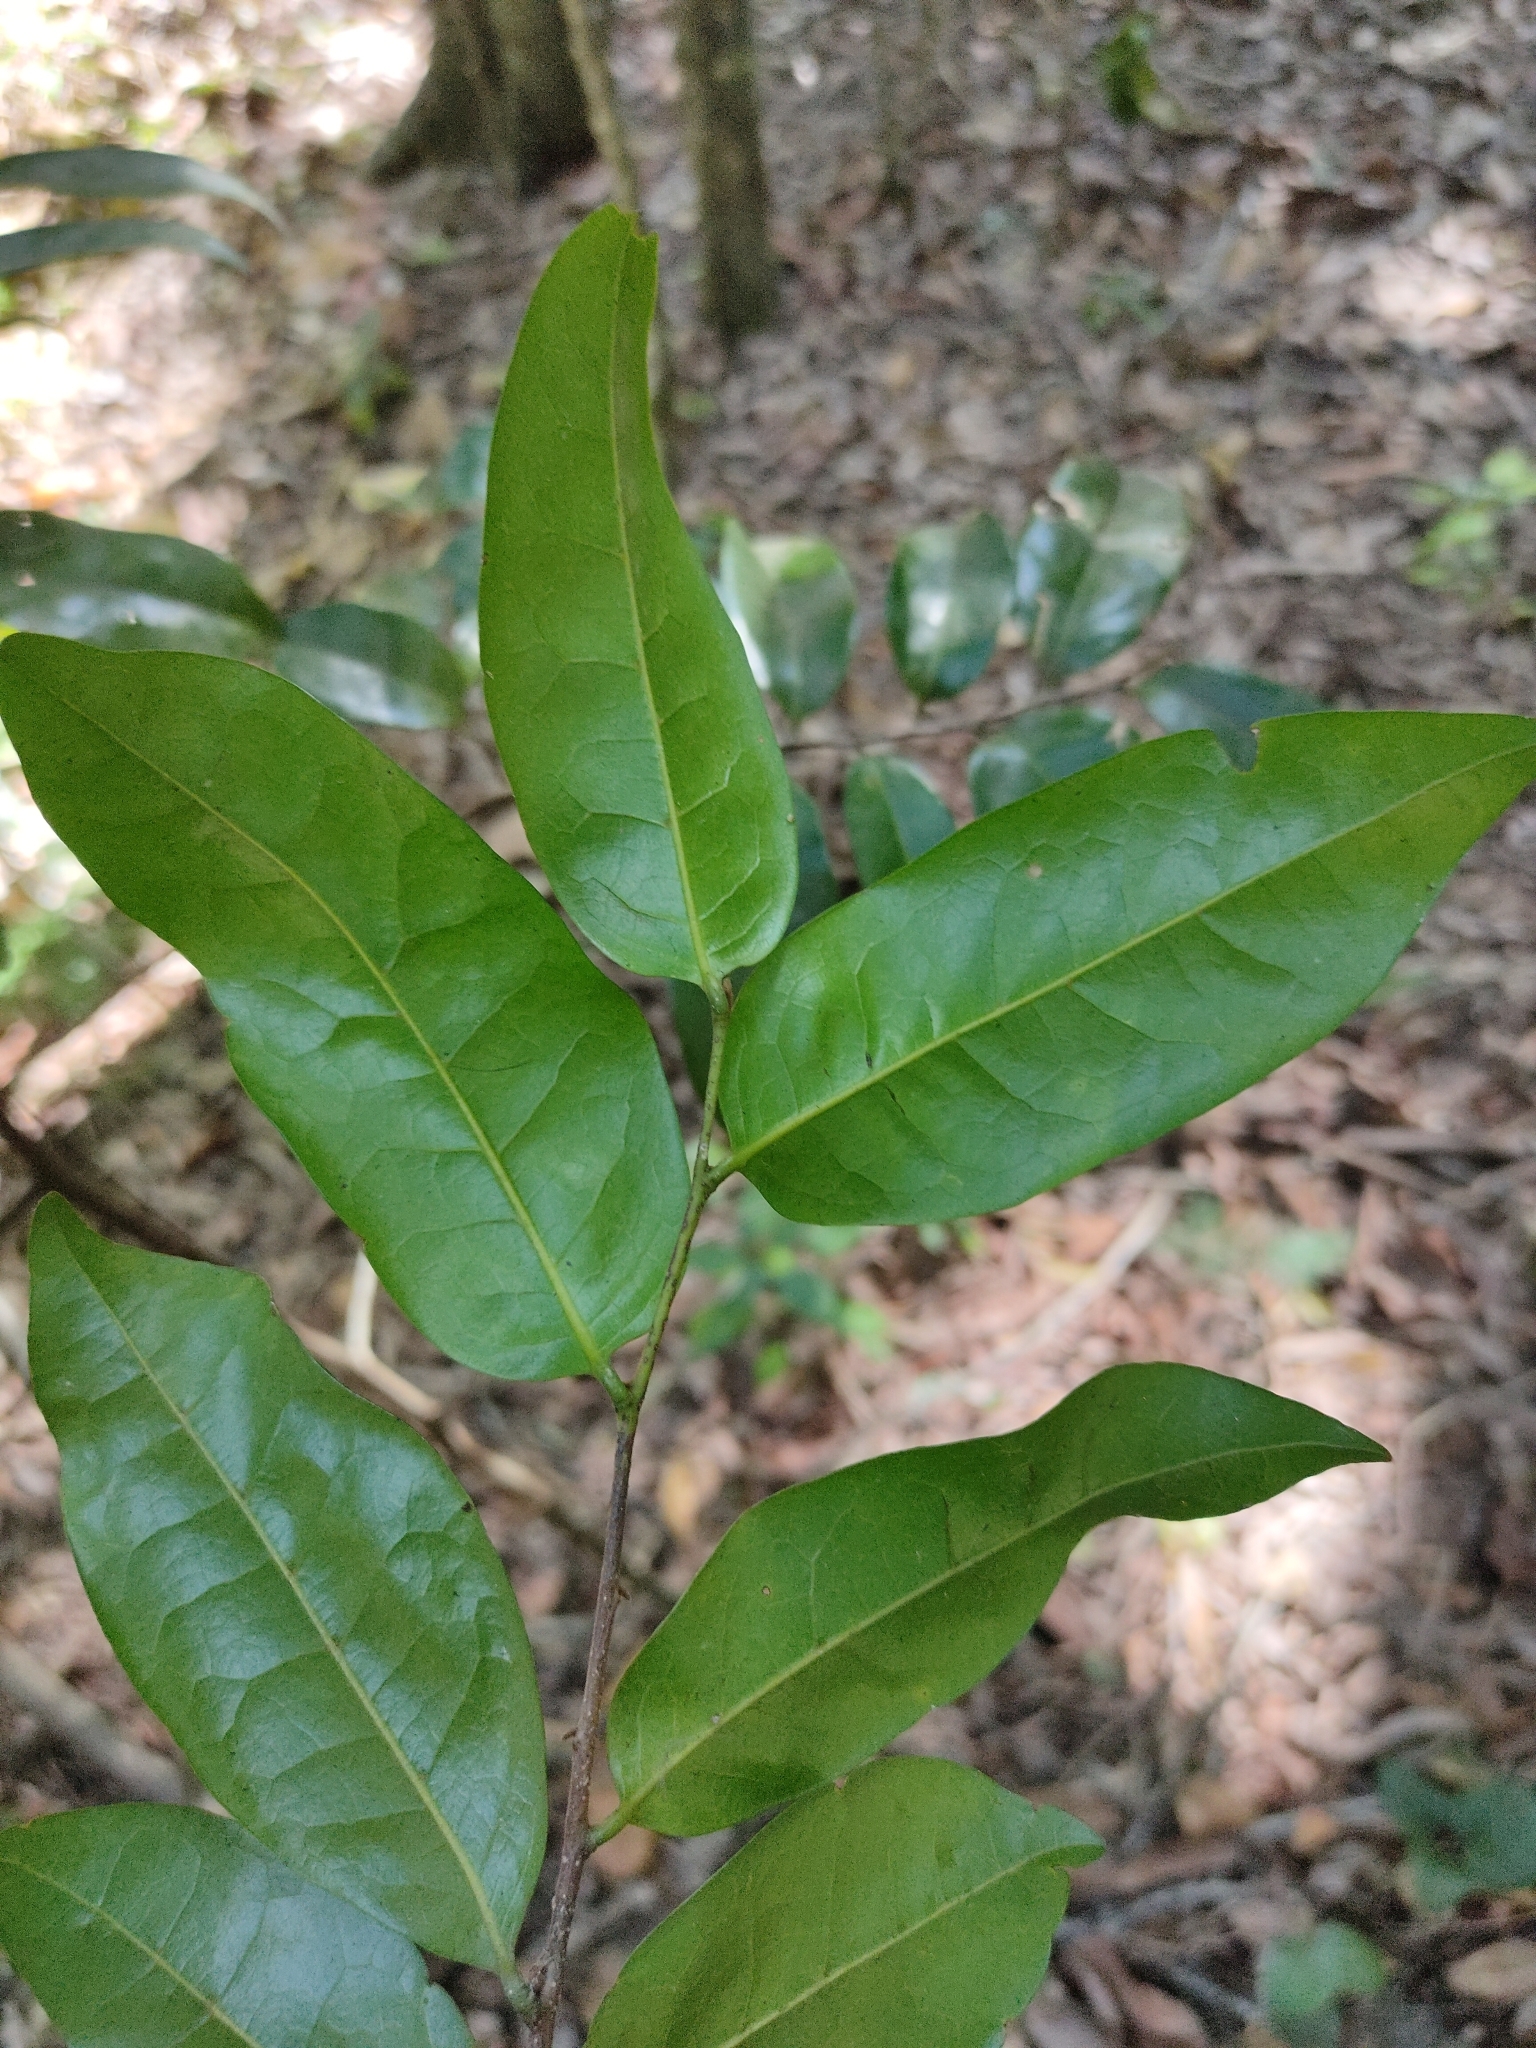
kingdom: Plantae
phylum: Tracheophyta
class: Magnoliopsida
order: Magnoliales
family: Annonaceae
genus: Hubera
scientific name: Hubera nitidissima
